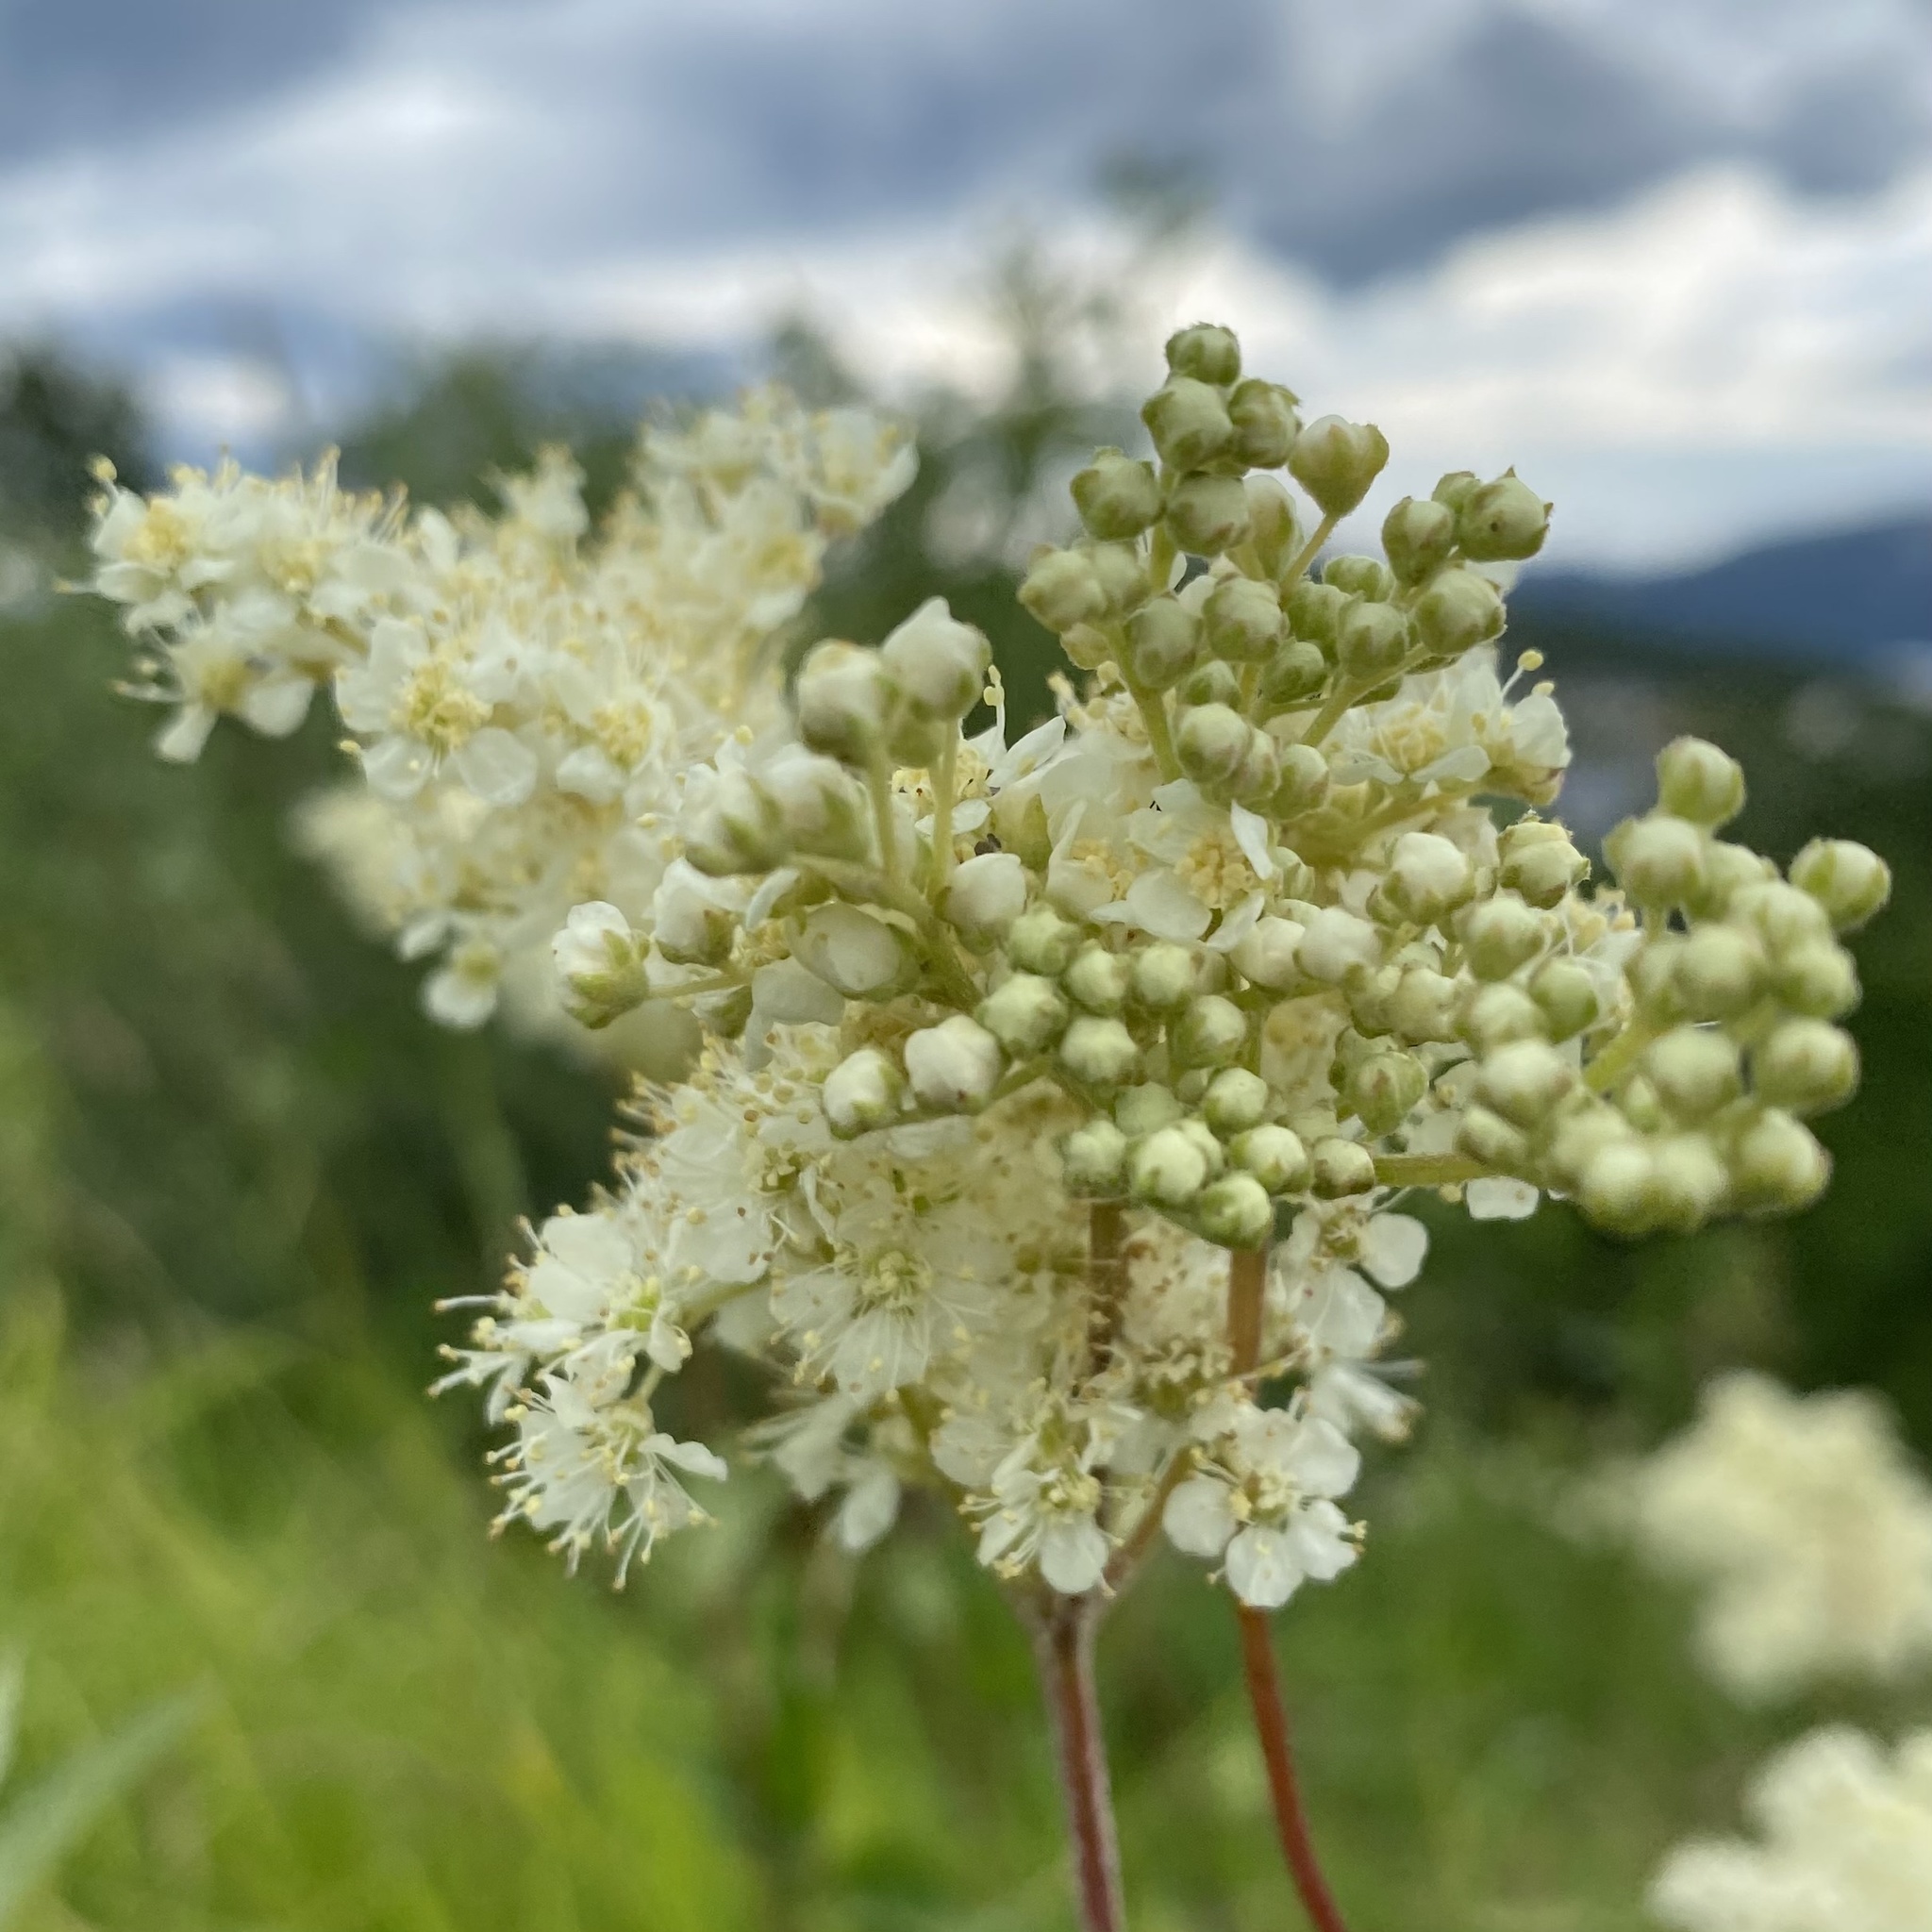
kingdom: Plantae
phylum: Tracheophyta
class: Magnoliopsida
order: Rosales
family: Rosaceae
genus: Filipendula
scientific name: Filipendula ulmaria
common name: Meadowsweet
